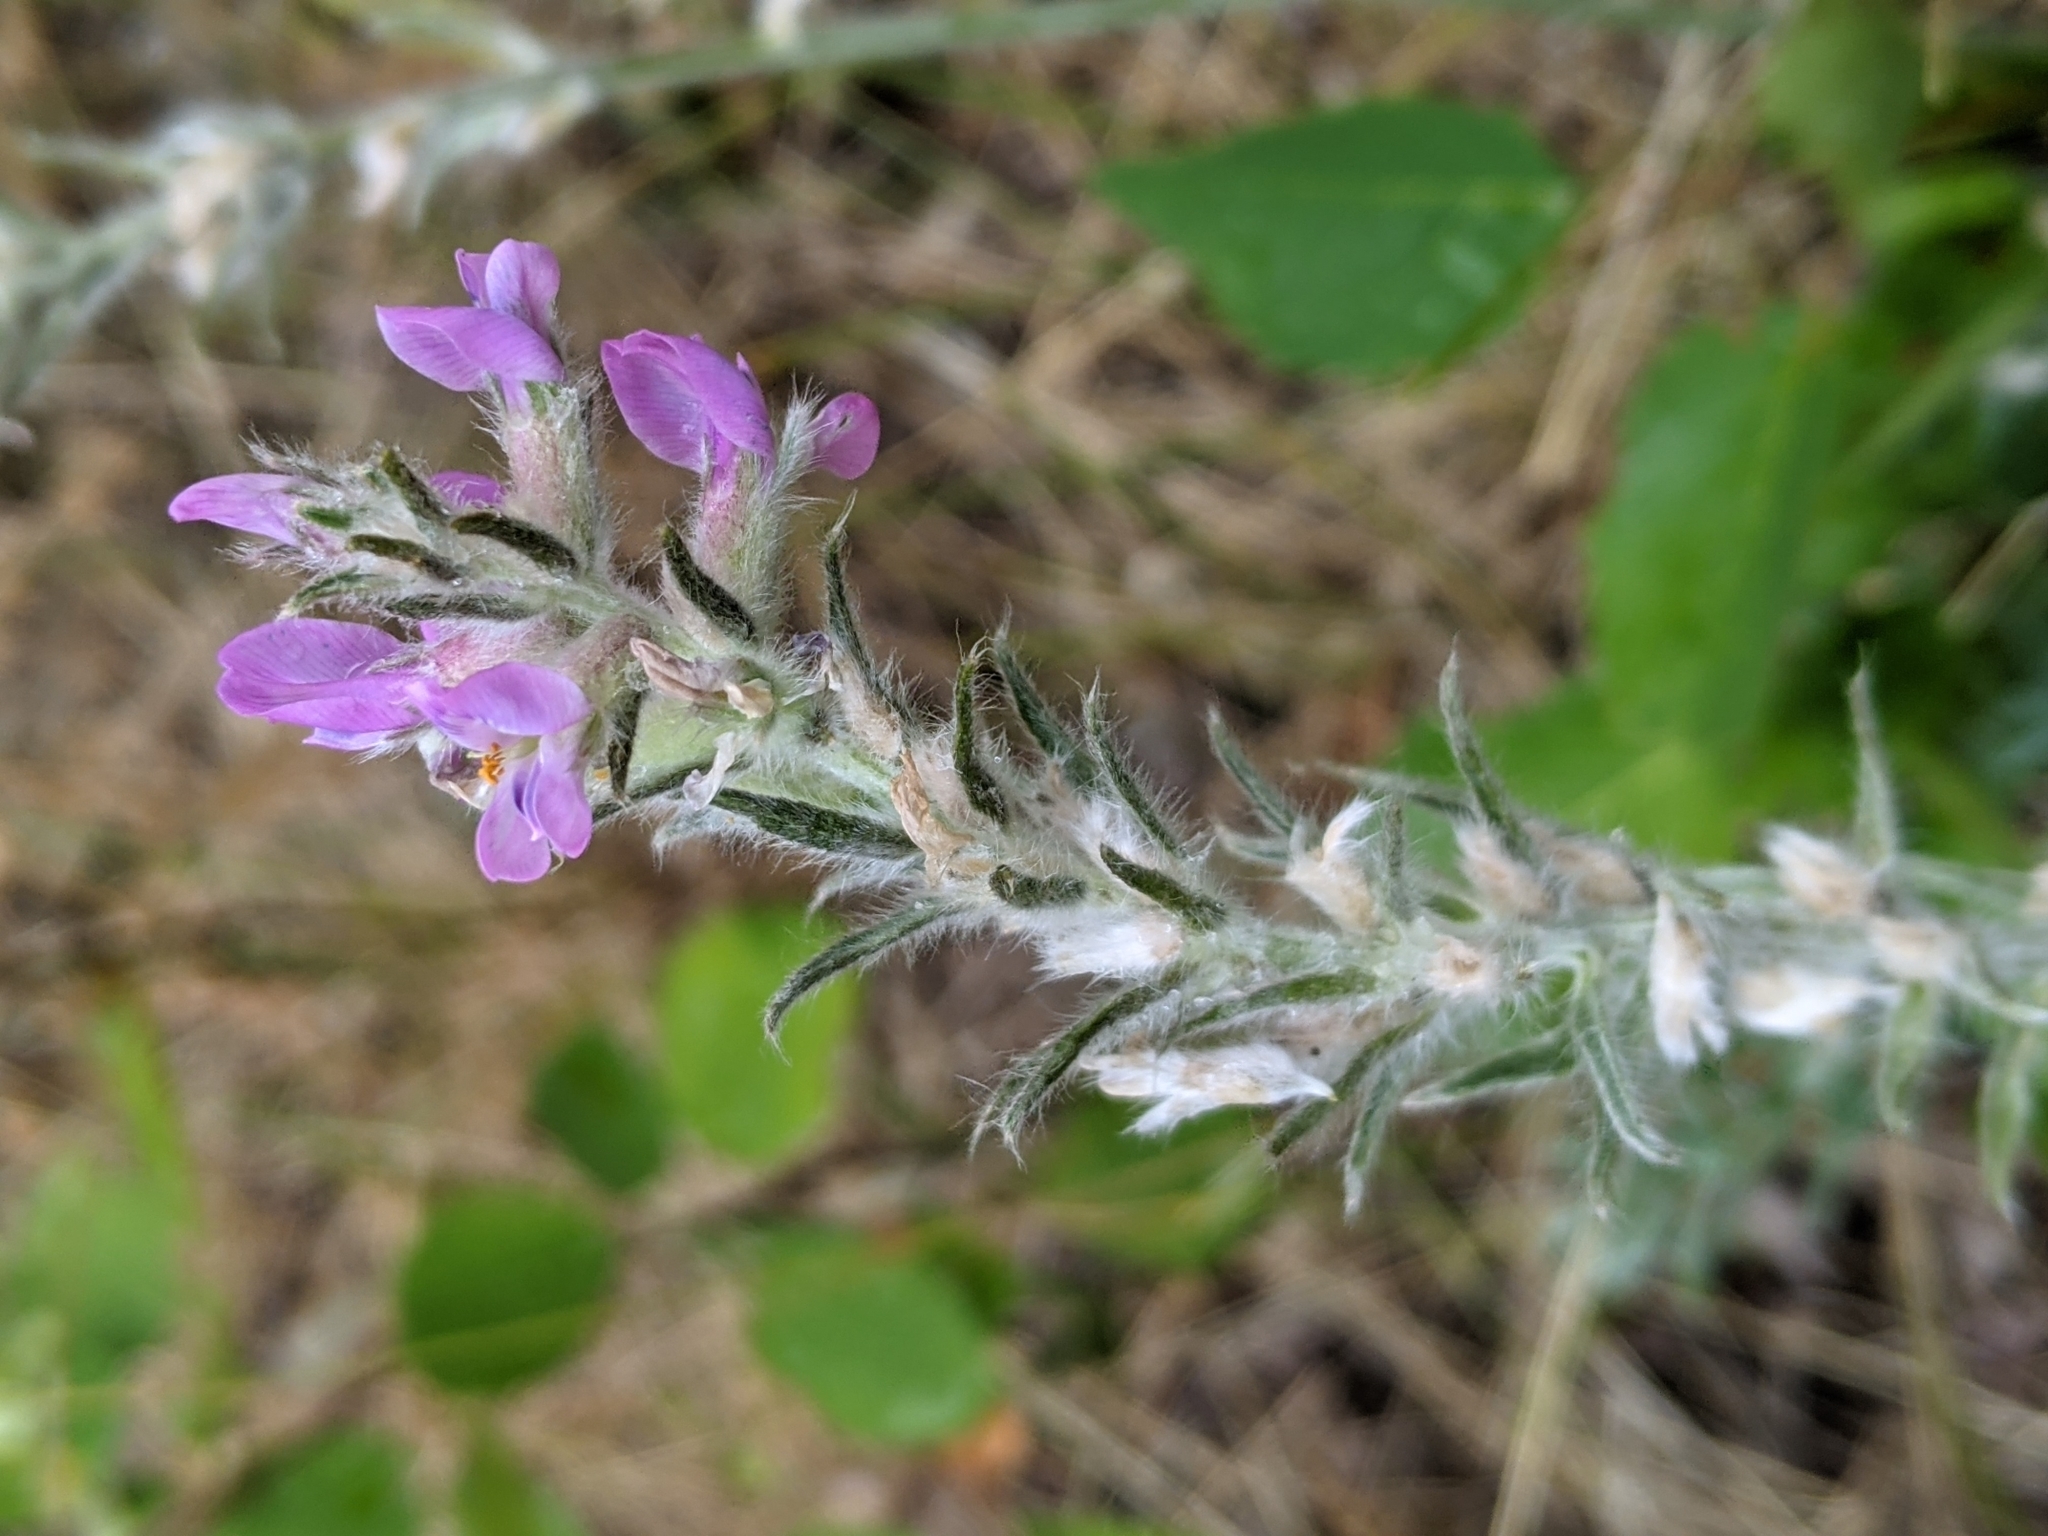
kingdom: Plantae
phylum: Tracheophyta
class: Magnoliopsida
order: Fabales
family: Fabaceae
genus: Oxytropis
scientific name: Oxytropis splendens
